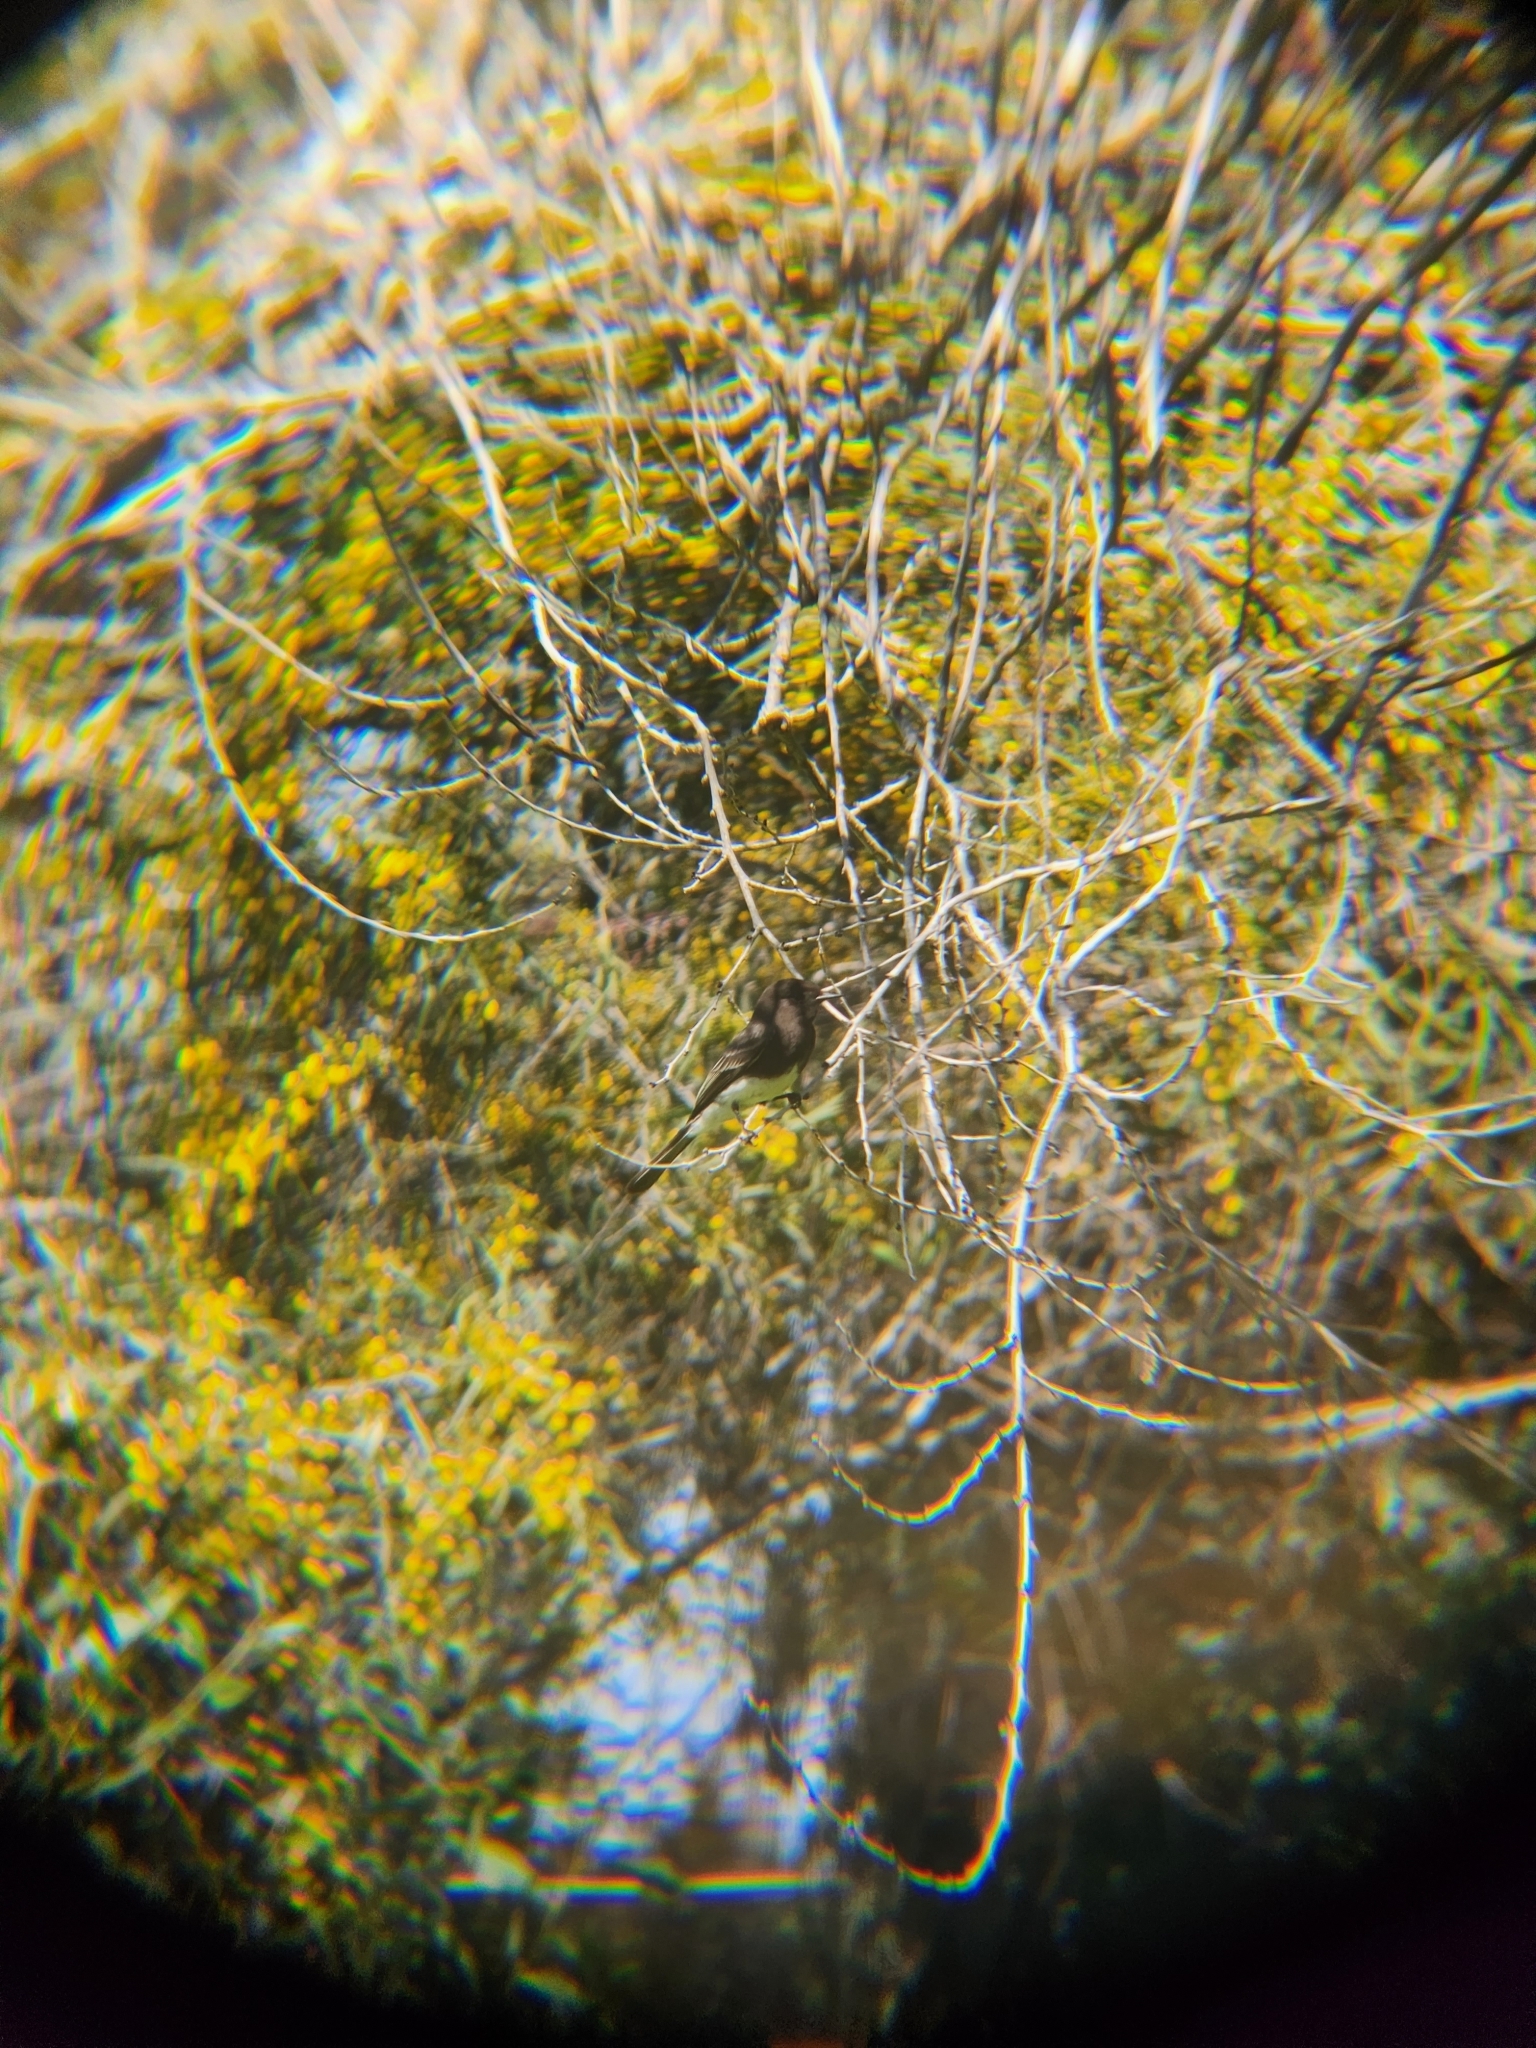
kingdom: Animalia
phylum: Chordata
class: Aves
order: Passeriformes
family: Tyrannidae
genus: Sayornis
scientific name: Sayornis nigricans
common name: Black phoebe
